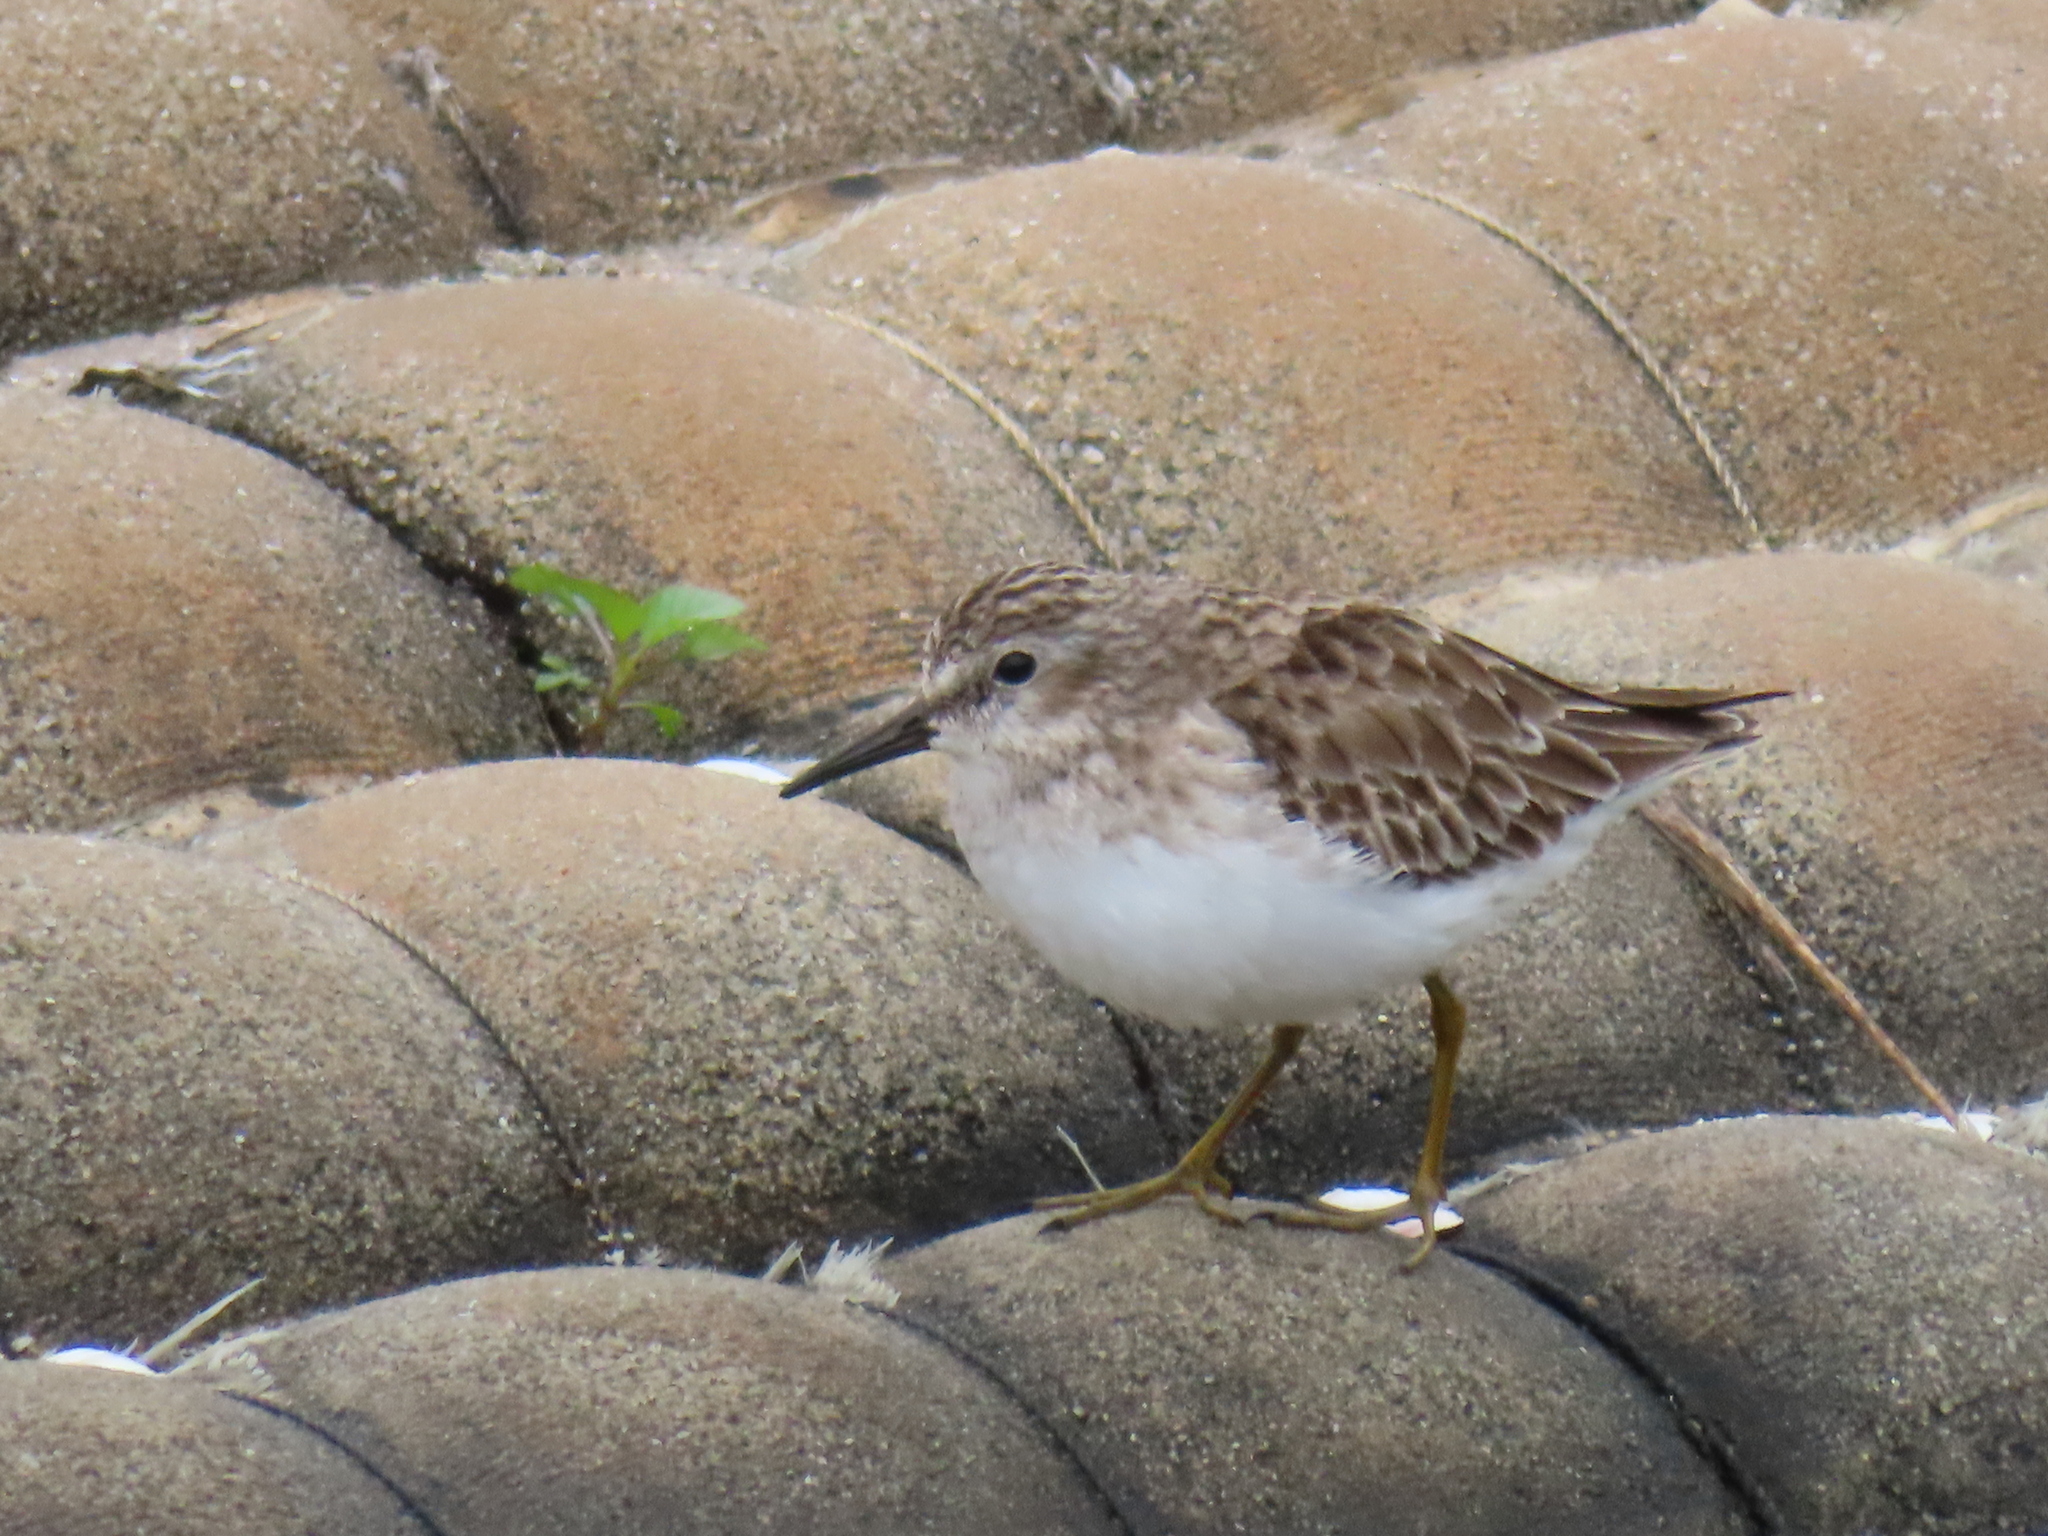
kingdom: Animalia
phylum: Chordata
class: Aves
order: Charadriiformes
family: Scolopacidae
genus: Calidris
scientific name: Calidris minutilla
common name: Least sandpiper
